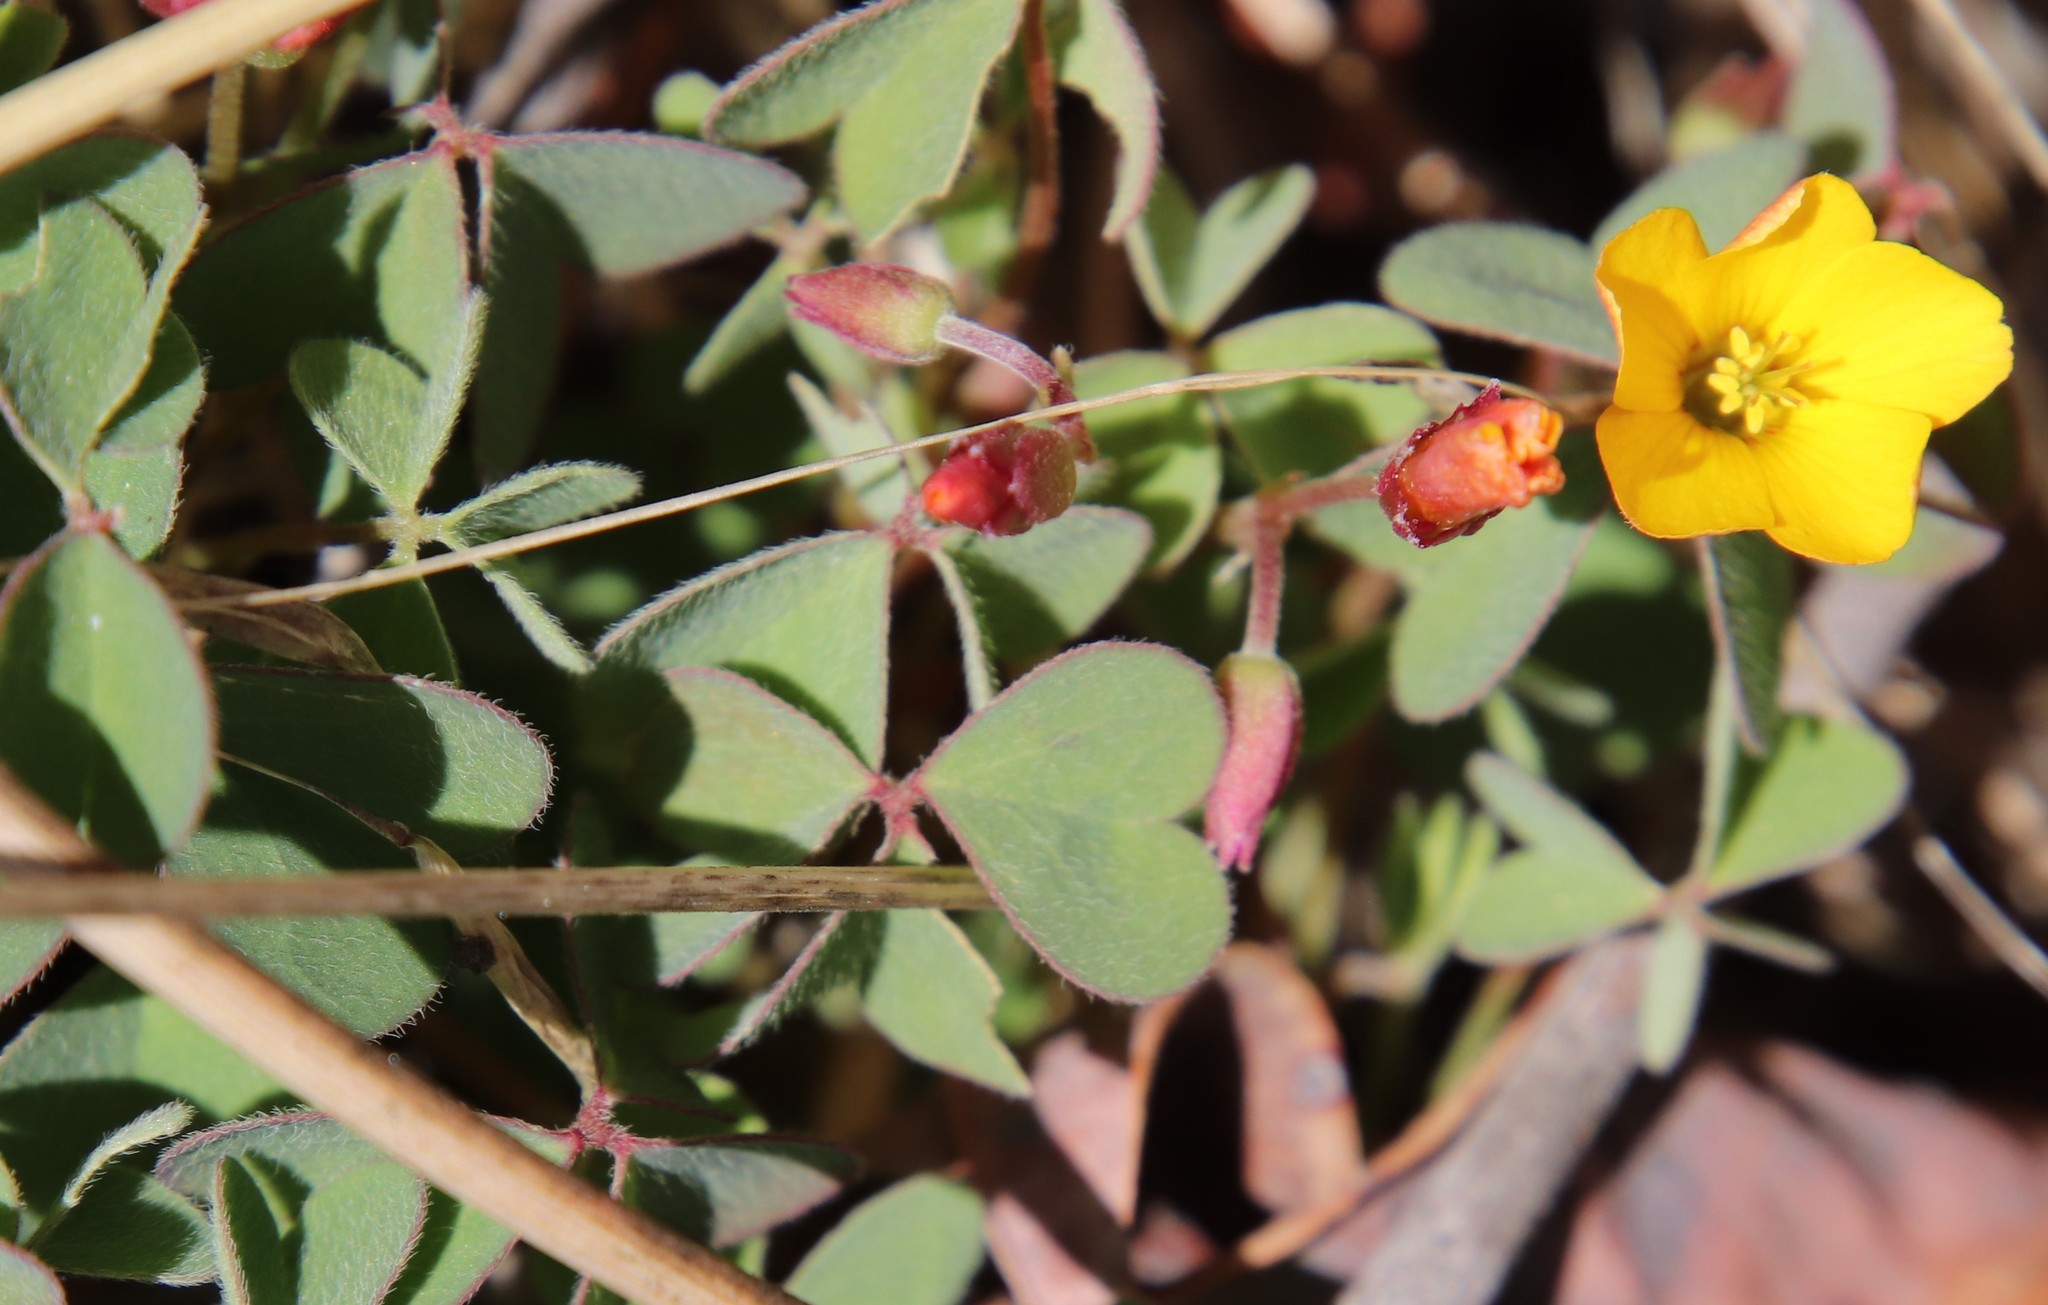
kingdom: Plantae
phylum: Tracheophyta
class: Magnoliopsida
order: Oxalidales
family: Oxalidaceae
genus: Oxalis
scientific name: Oxalis californica
